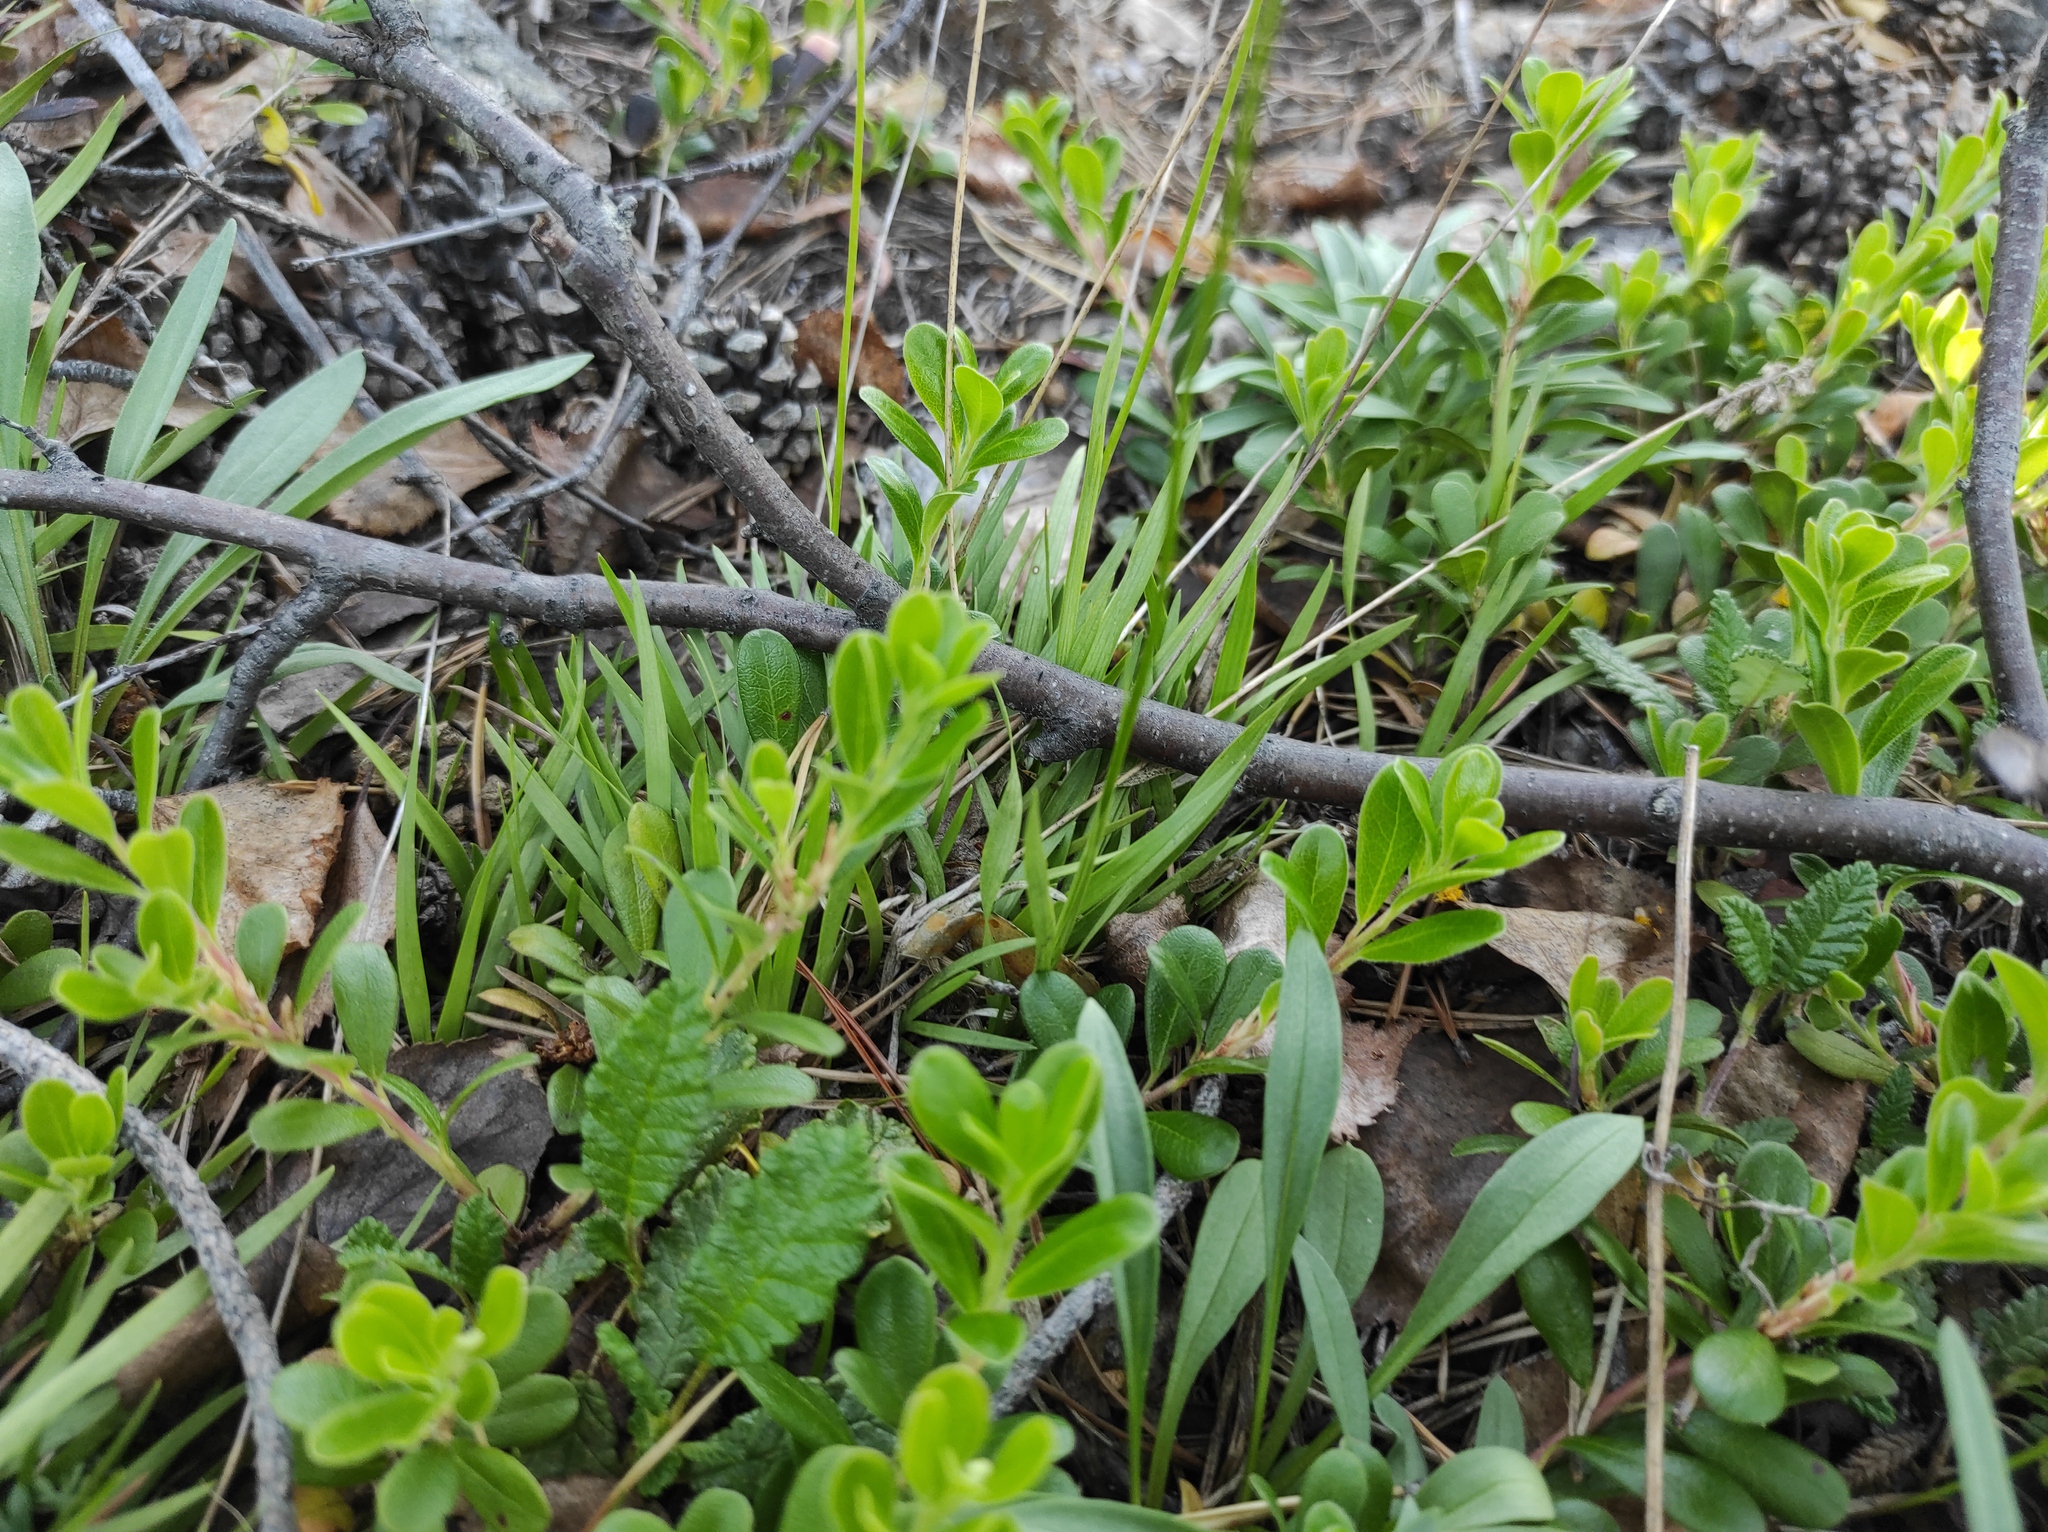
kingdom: Plantae
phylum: Tracheophyta
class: Magnoliopsida
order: Ericales
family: Ericaceae
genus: Arctostaphylos
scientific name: Arctostaphylos uva-ursi
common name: Bearberry
